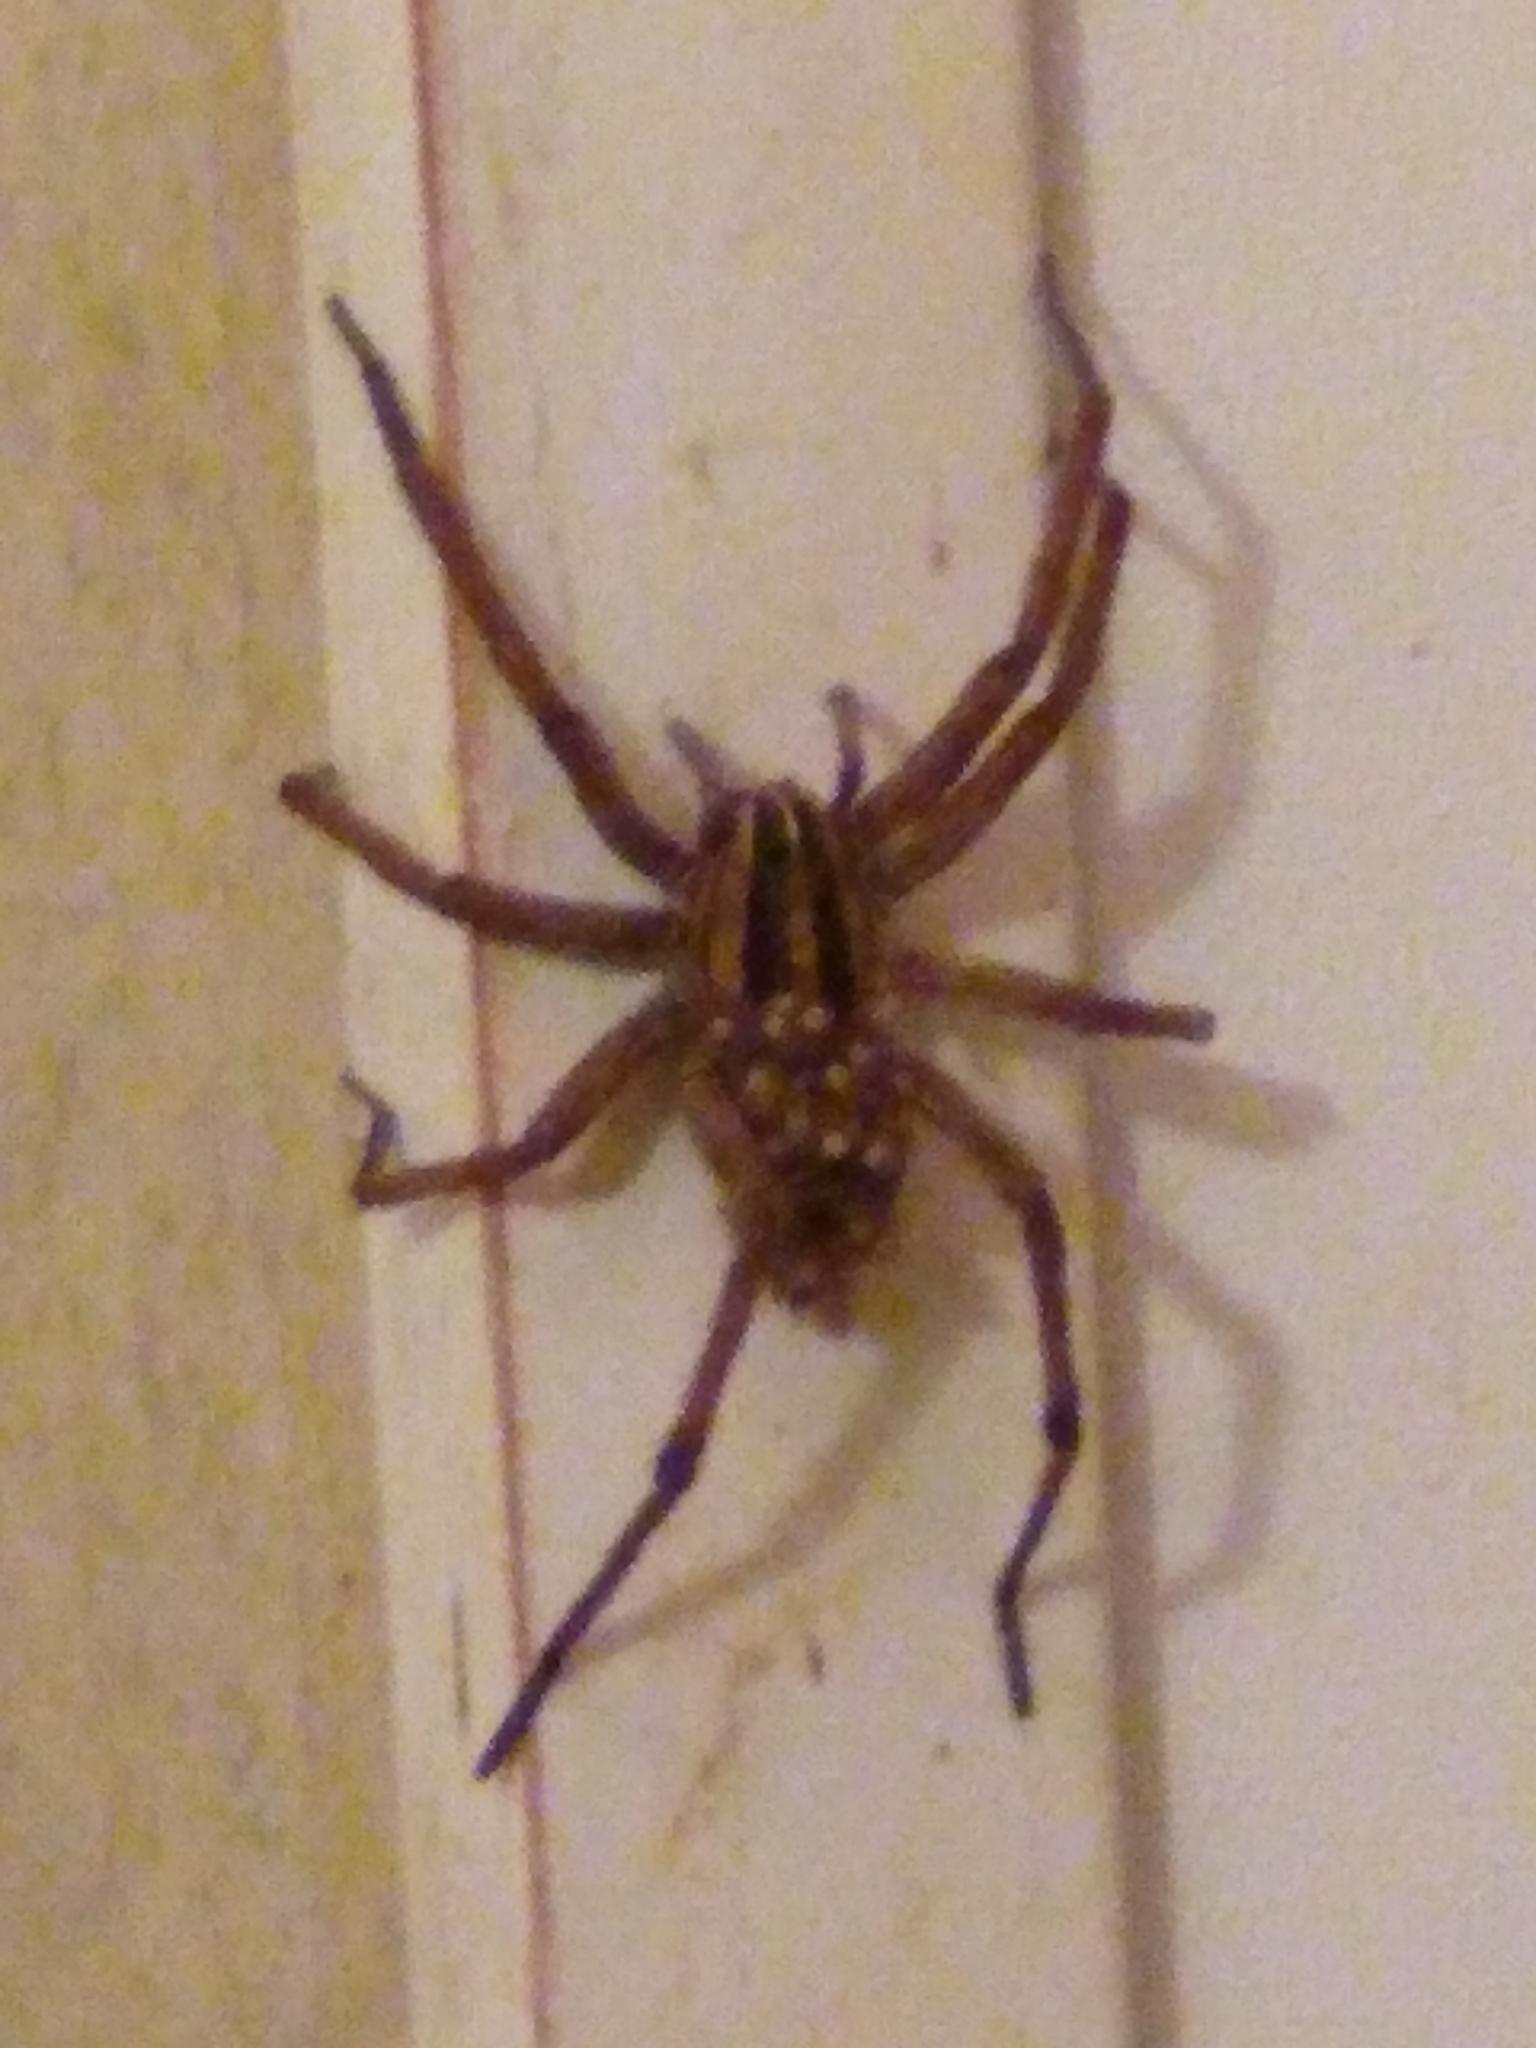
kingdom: Animalia
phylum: Arthropoda
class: Arachnida
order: Araneae
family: Lycosidae
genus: Rabidosa
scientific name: Rabidosa
